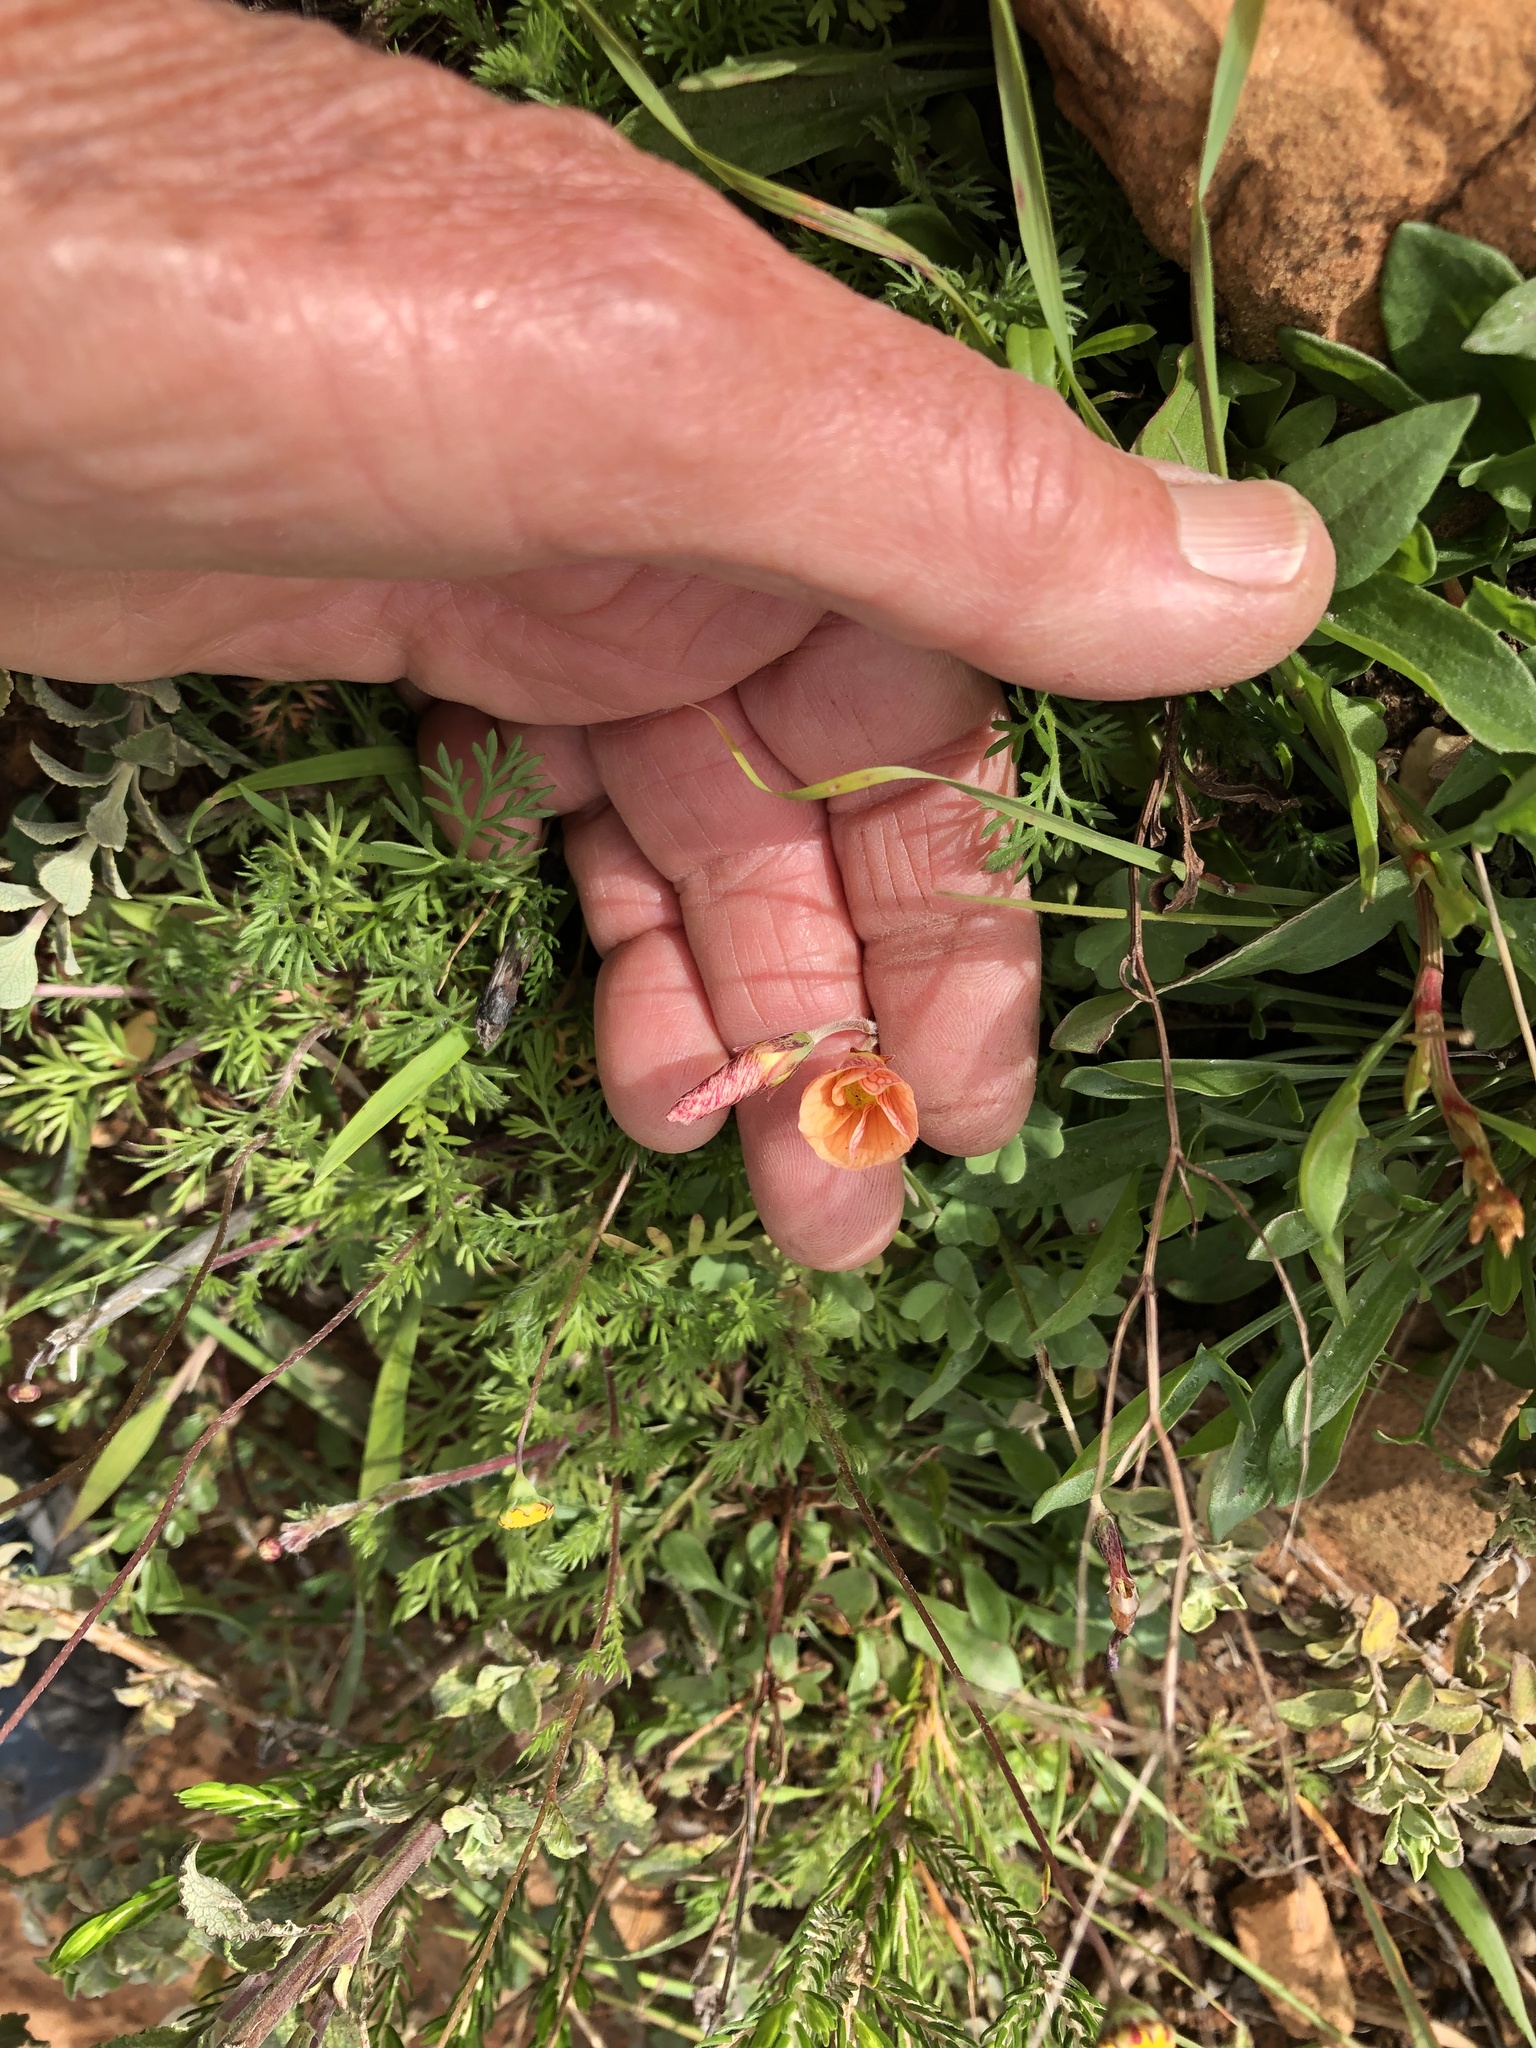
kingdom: Plantae
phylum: Tracheophyta
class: Magnoliopsida
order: Oxalidales
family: Oxalidaceae
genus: Oxalis
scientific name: Oxalis obtusa
